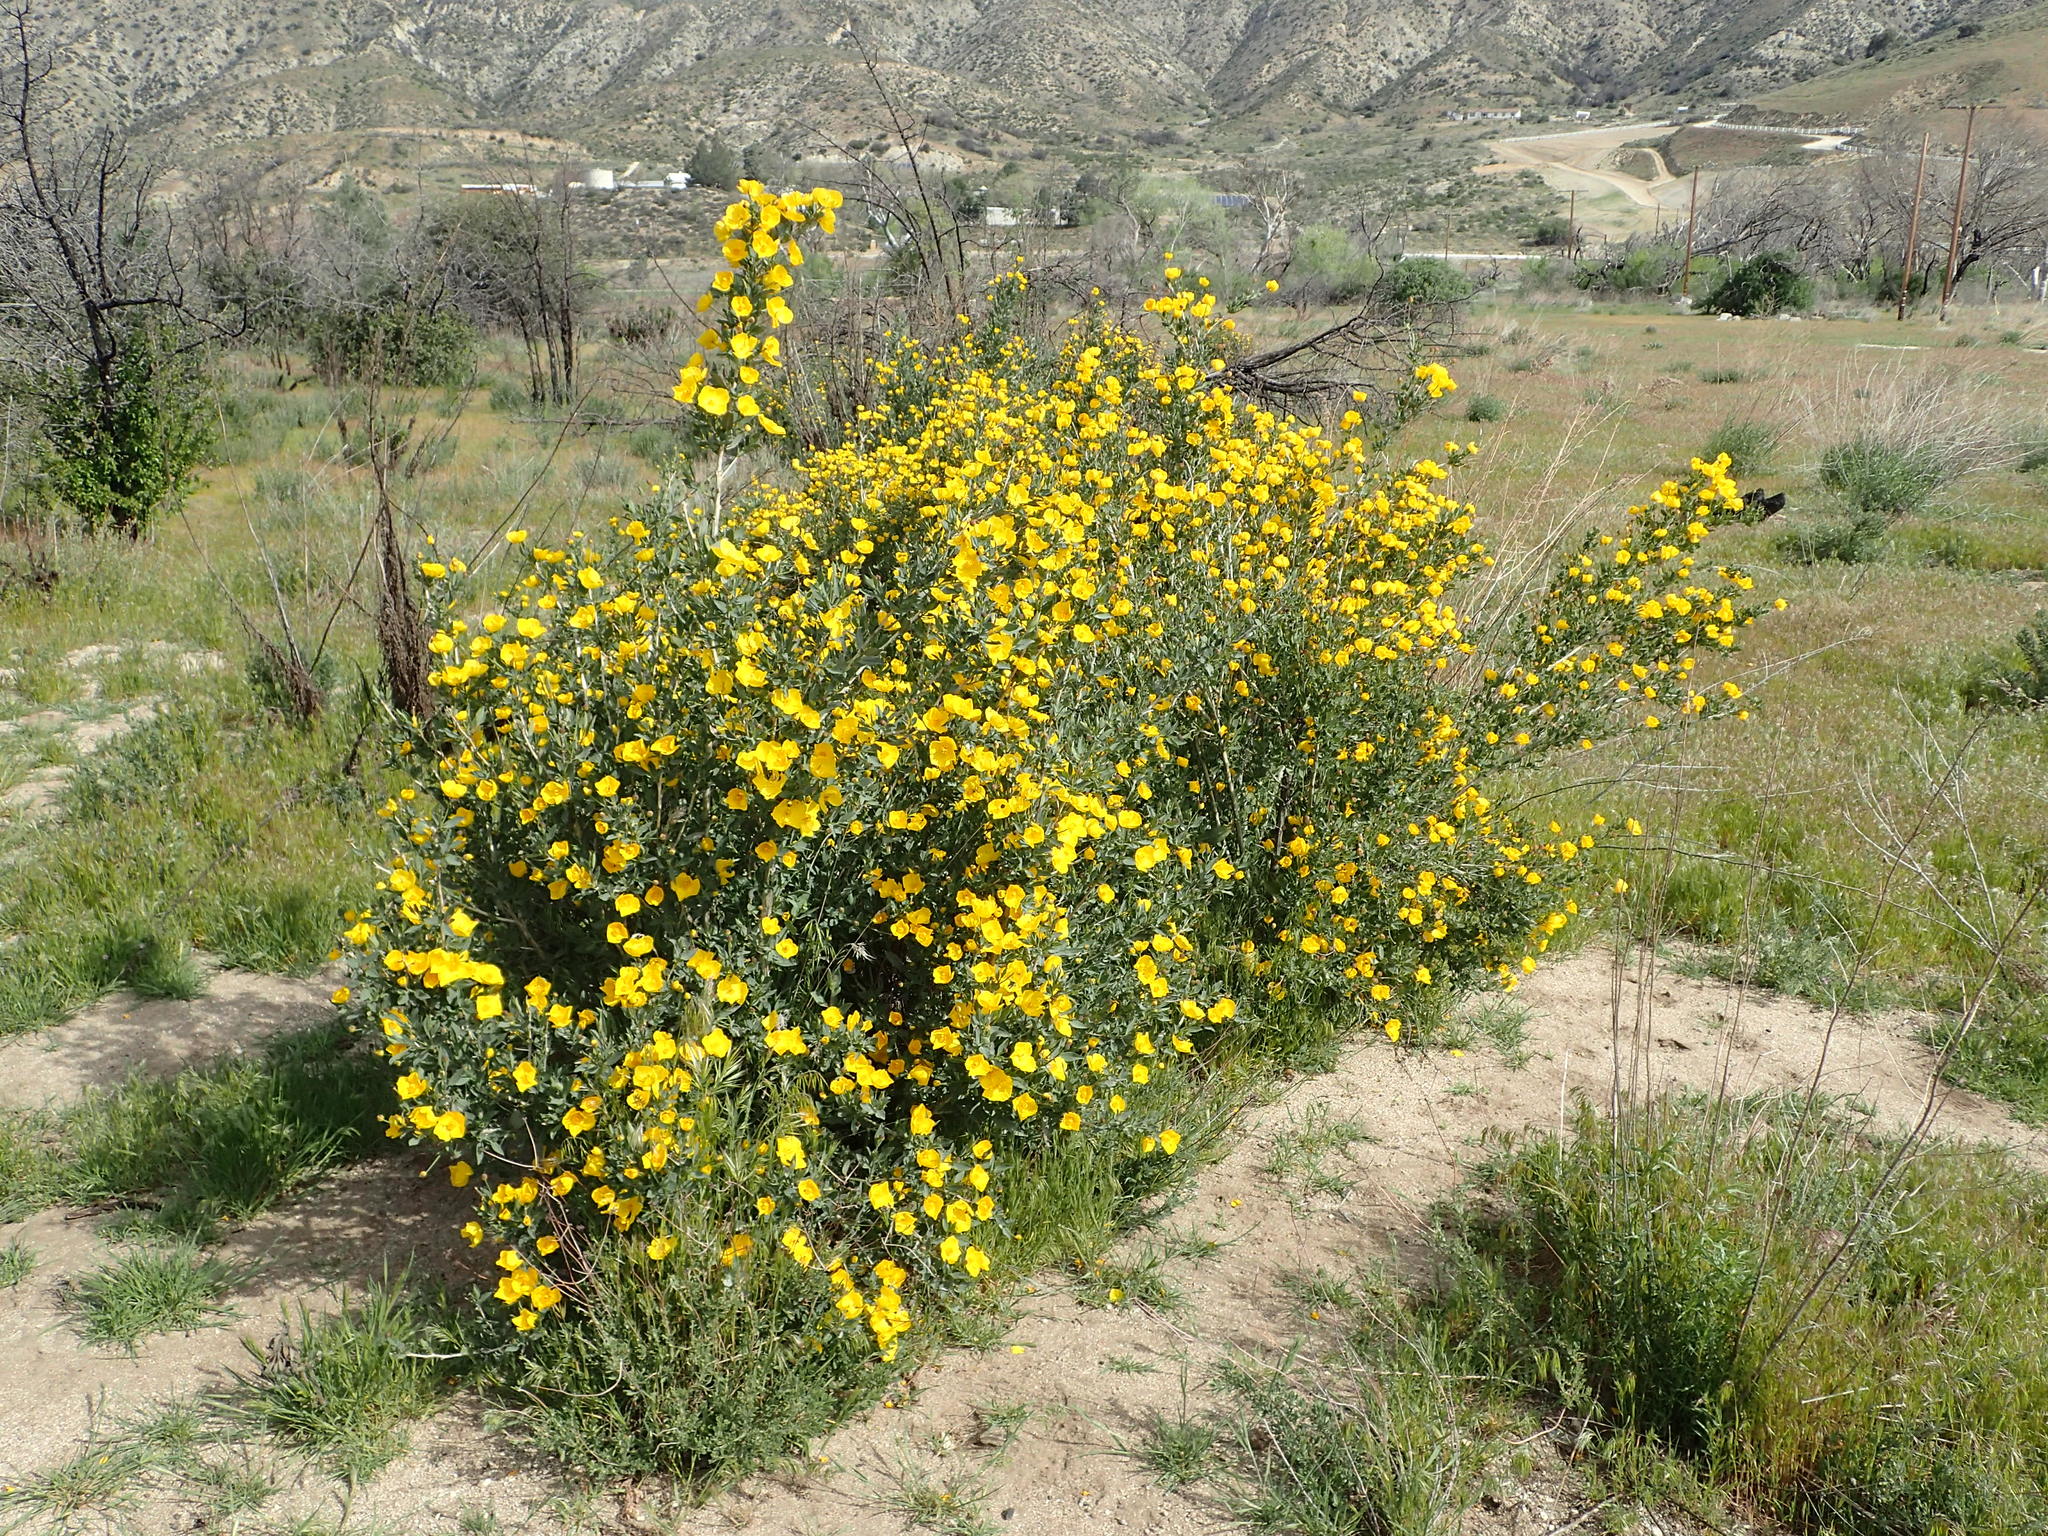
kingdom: Plantae
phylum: Tracheophyta
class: Magnoliopsida
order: Ranunculales
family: Papaveraceae
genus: Dendromecon
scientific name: Dendromecon rigida
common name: Tree poppy
